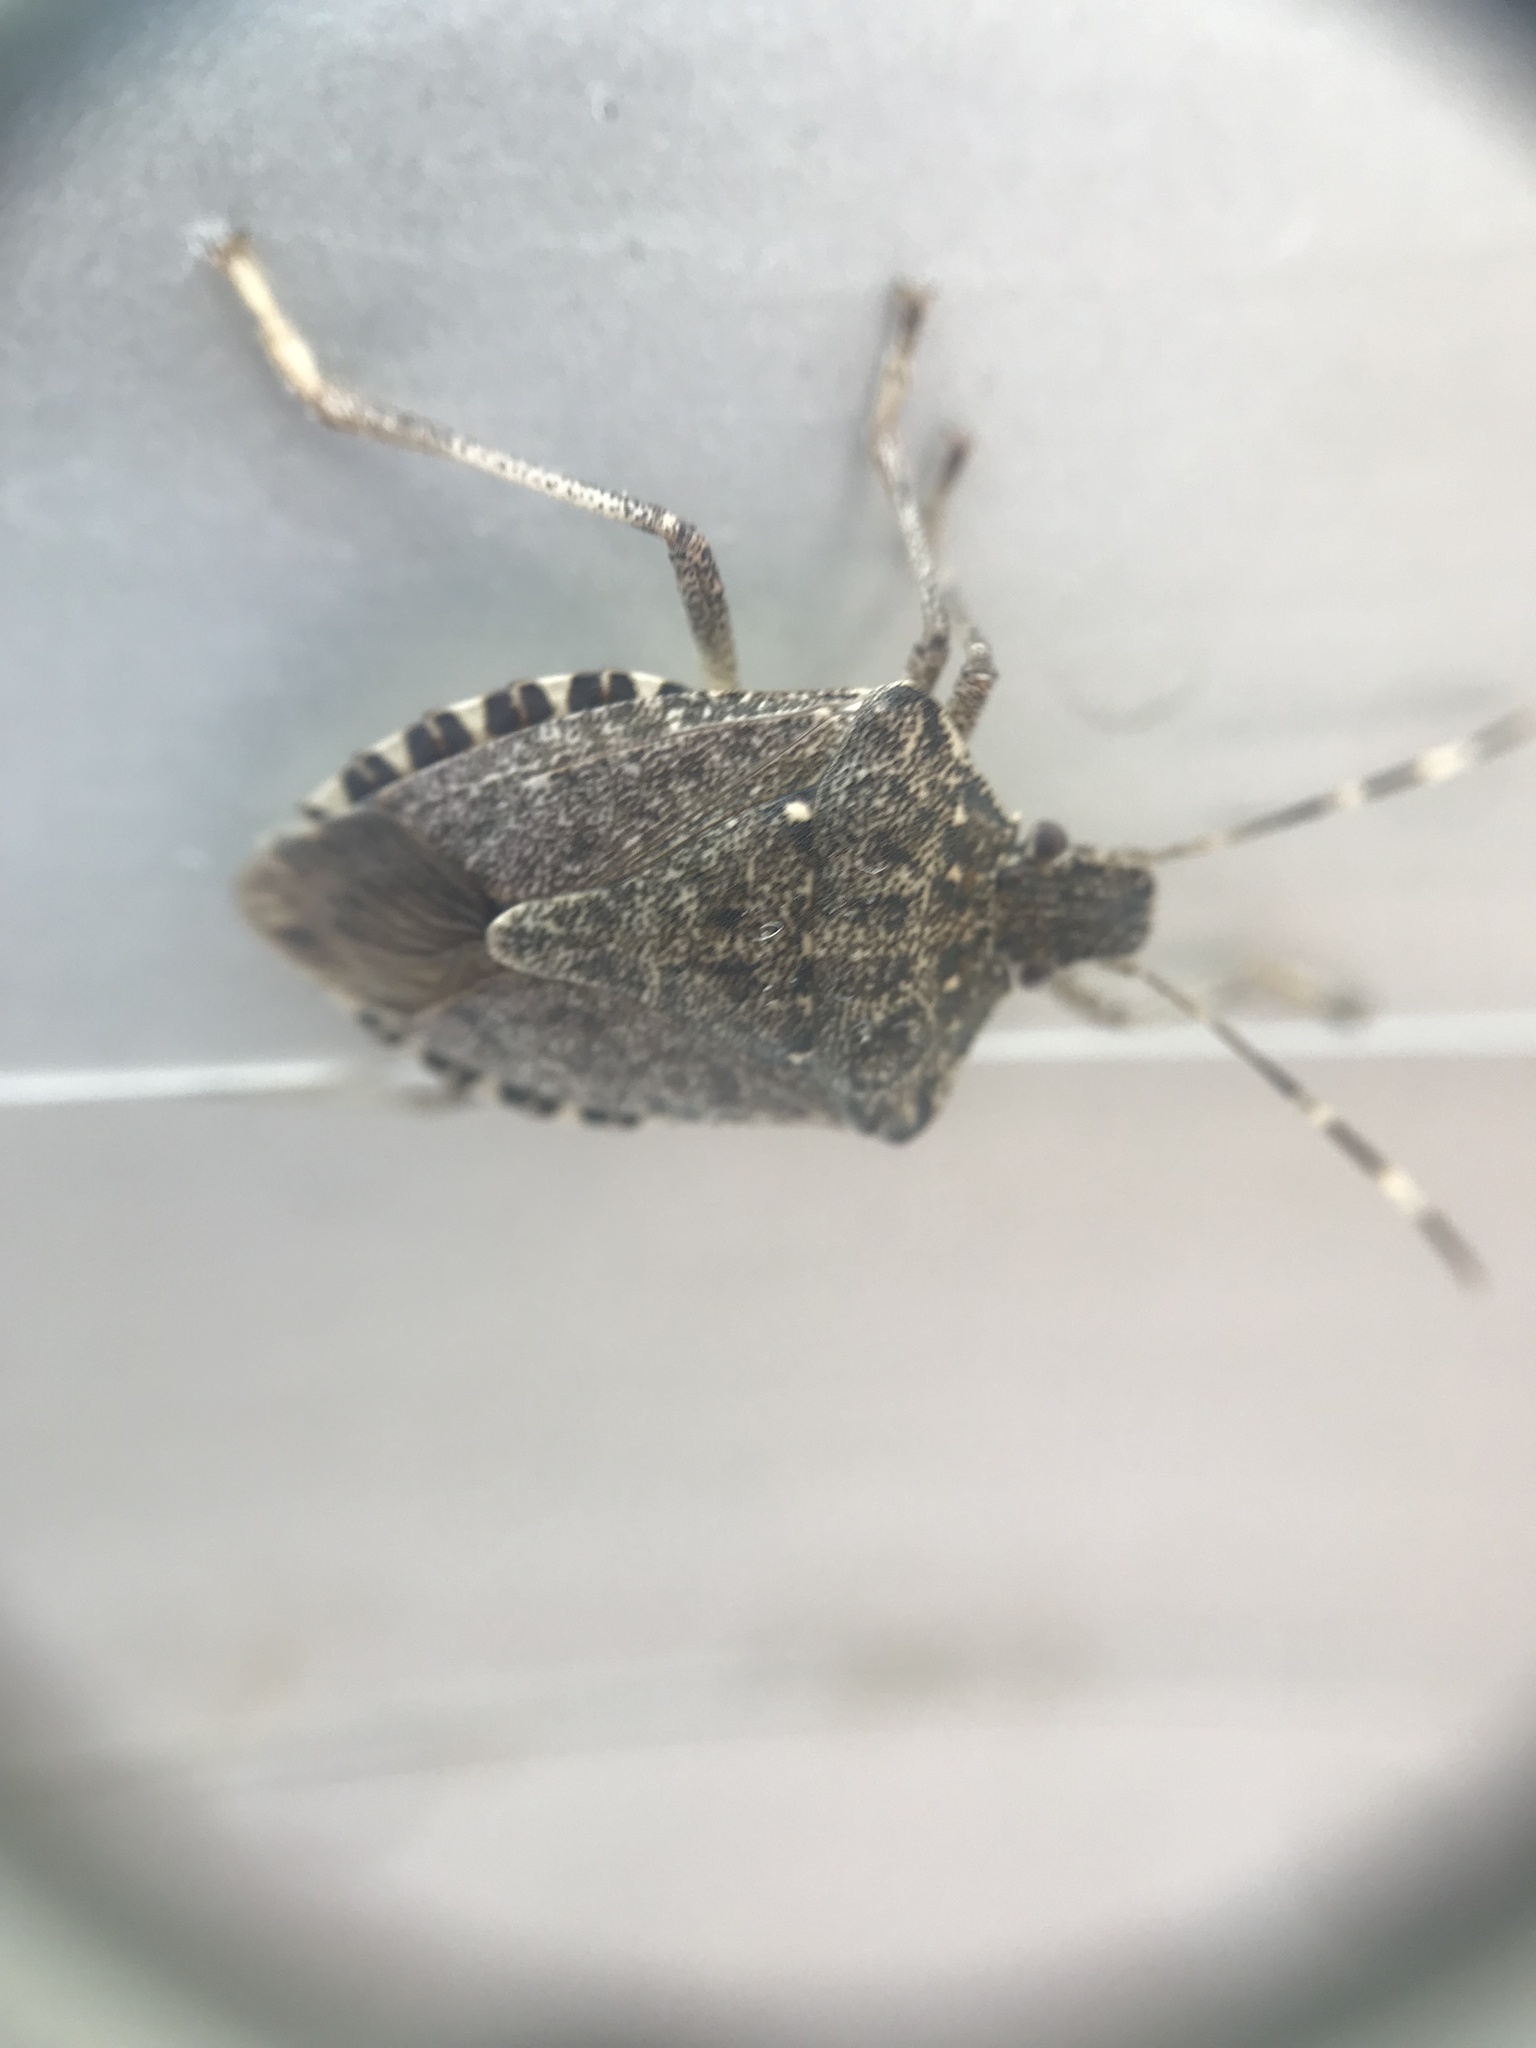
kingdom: Animalia
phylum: Arthropoda
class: Insecta
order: Hemiptera
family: Pentatomidae
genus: Halyomorpha
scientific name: Halyomorpha halys
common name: Brown marmorated stink bug
